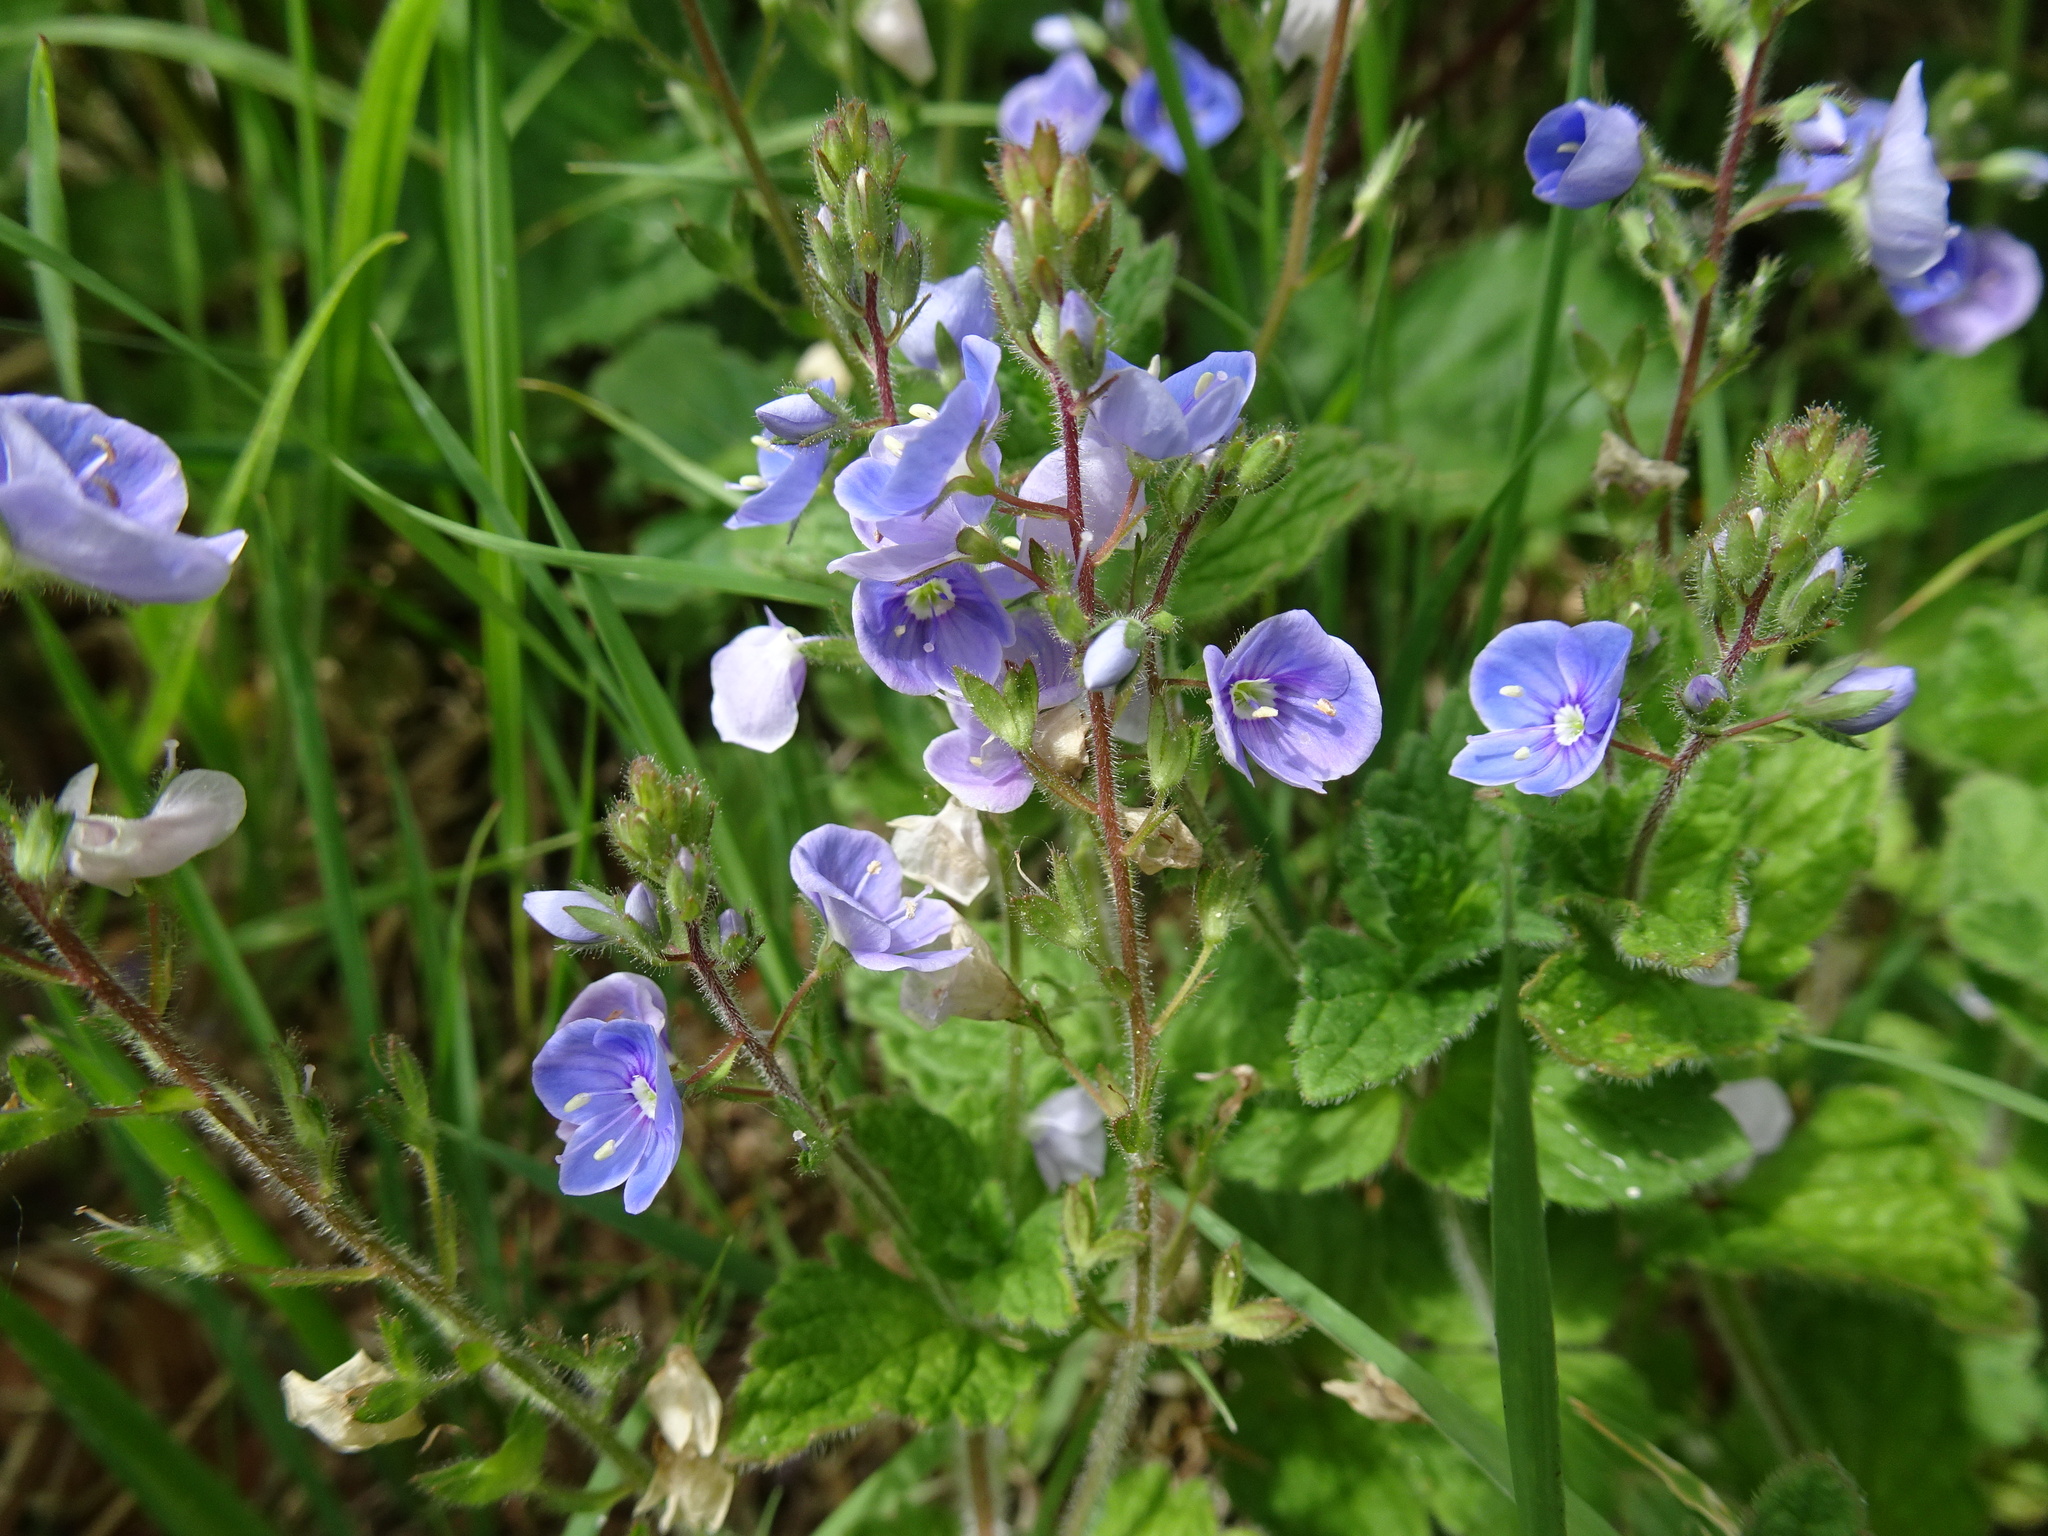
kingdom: Plantae
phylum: Tracheophyta
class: Magnoliopsida
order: Lamiales
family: Plantaginaceae
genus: Veronica
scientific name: Veronica chamaedrys
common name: Germander speedwell
